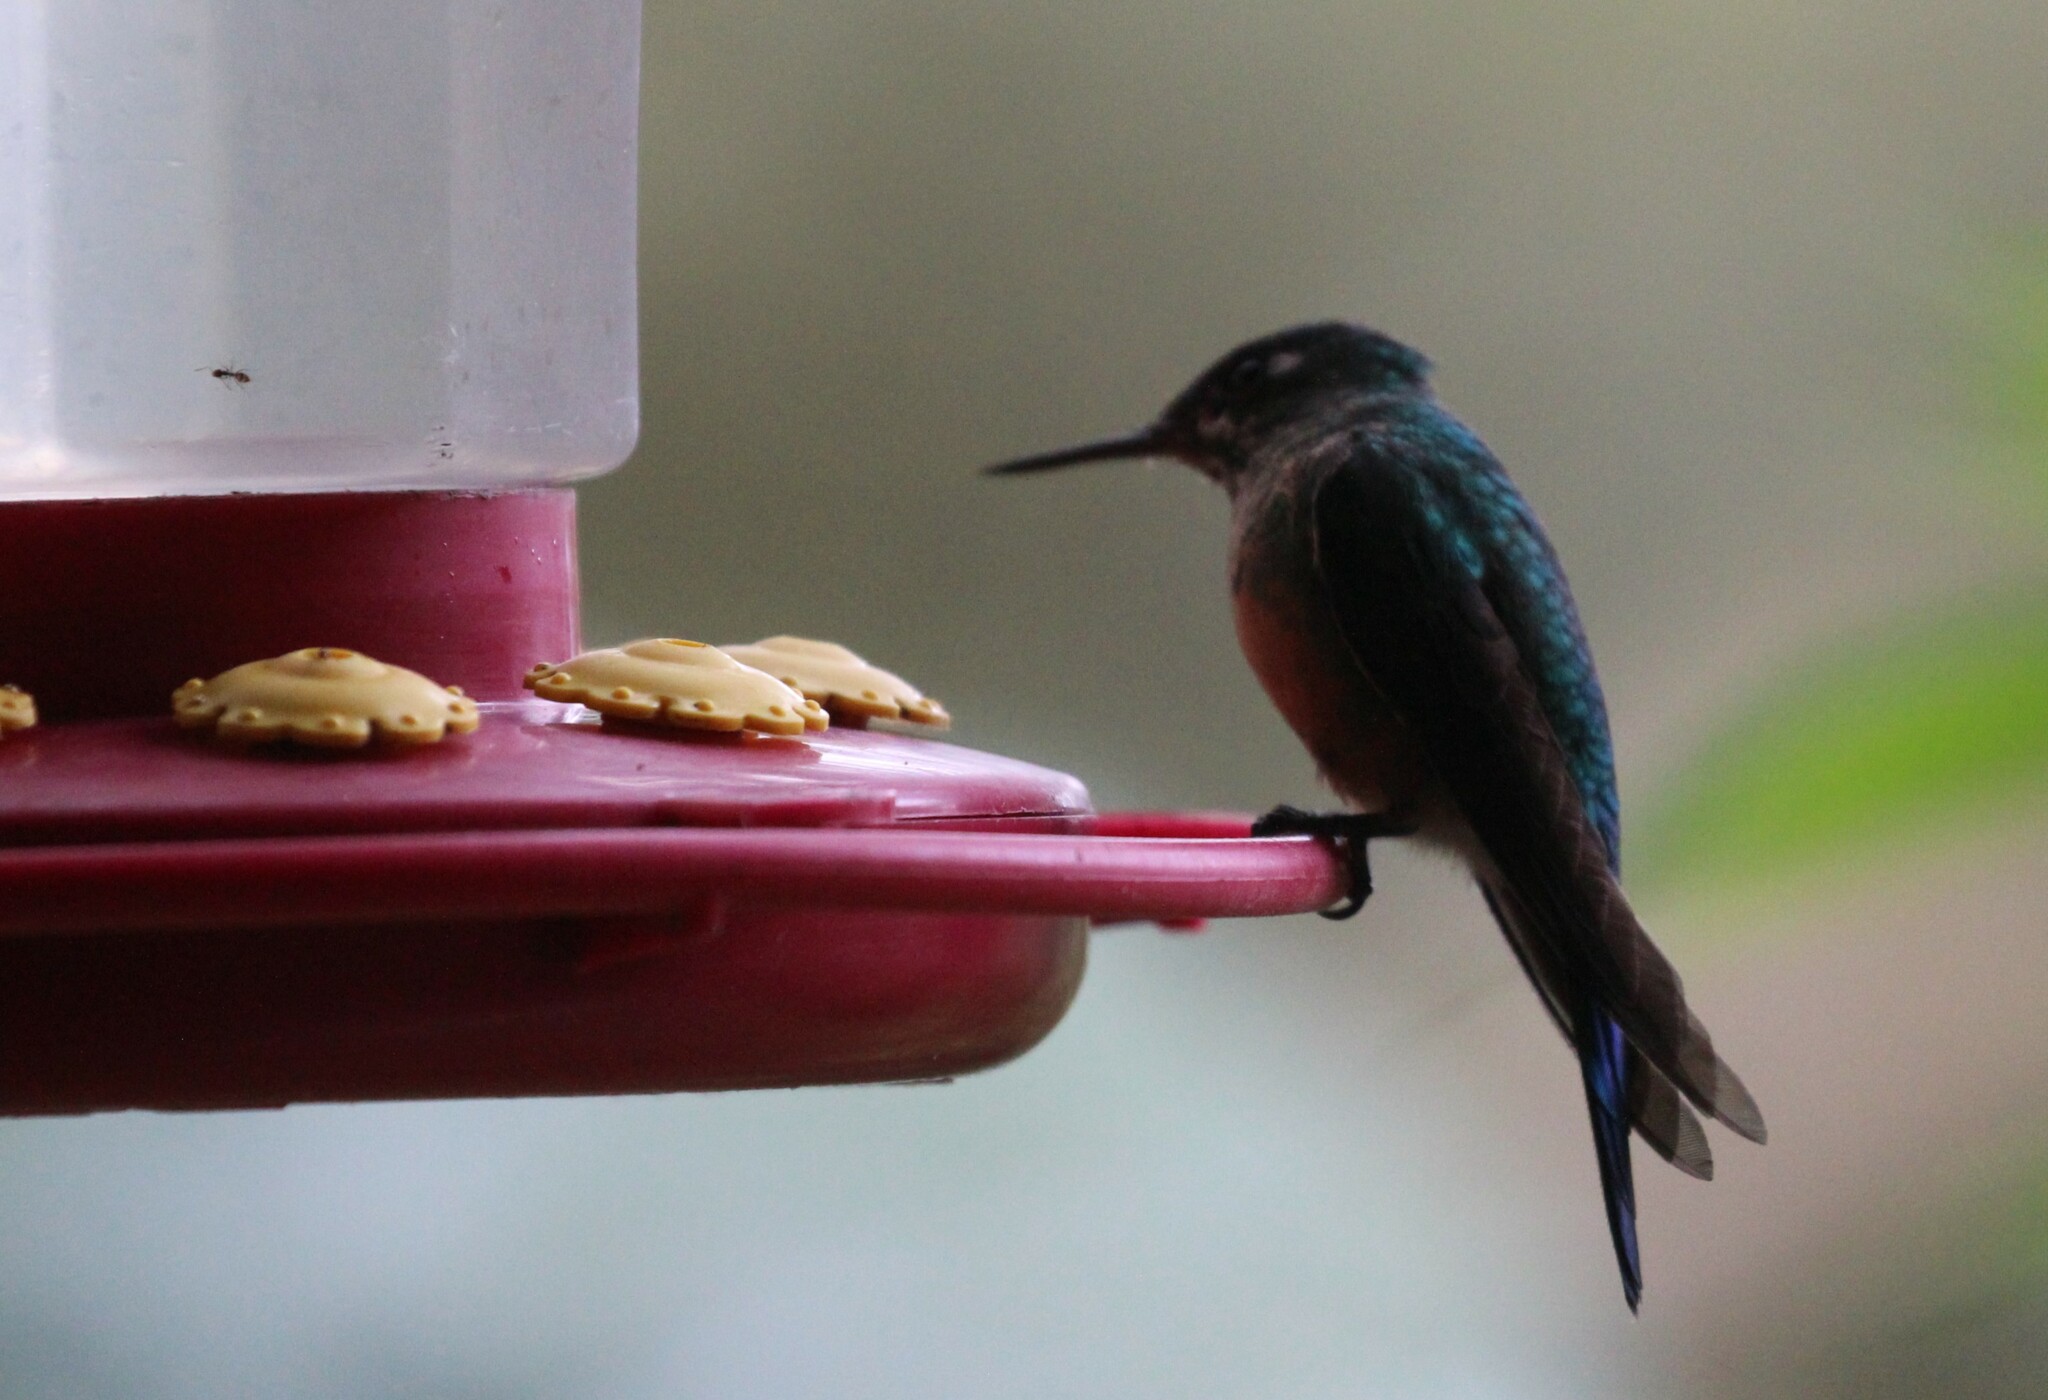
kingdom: Animalia
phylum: Chordata
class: Aves
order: Apodiformes
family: Trochilidae
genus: Aglaiocercus
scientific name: Aglaiocercus kingii
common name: Long-tailed sylph
